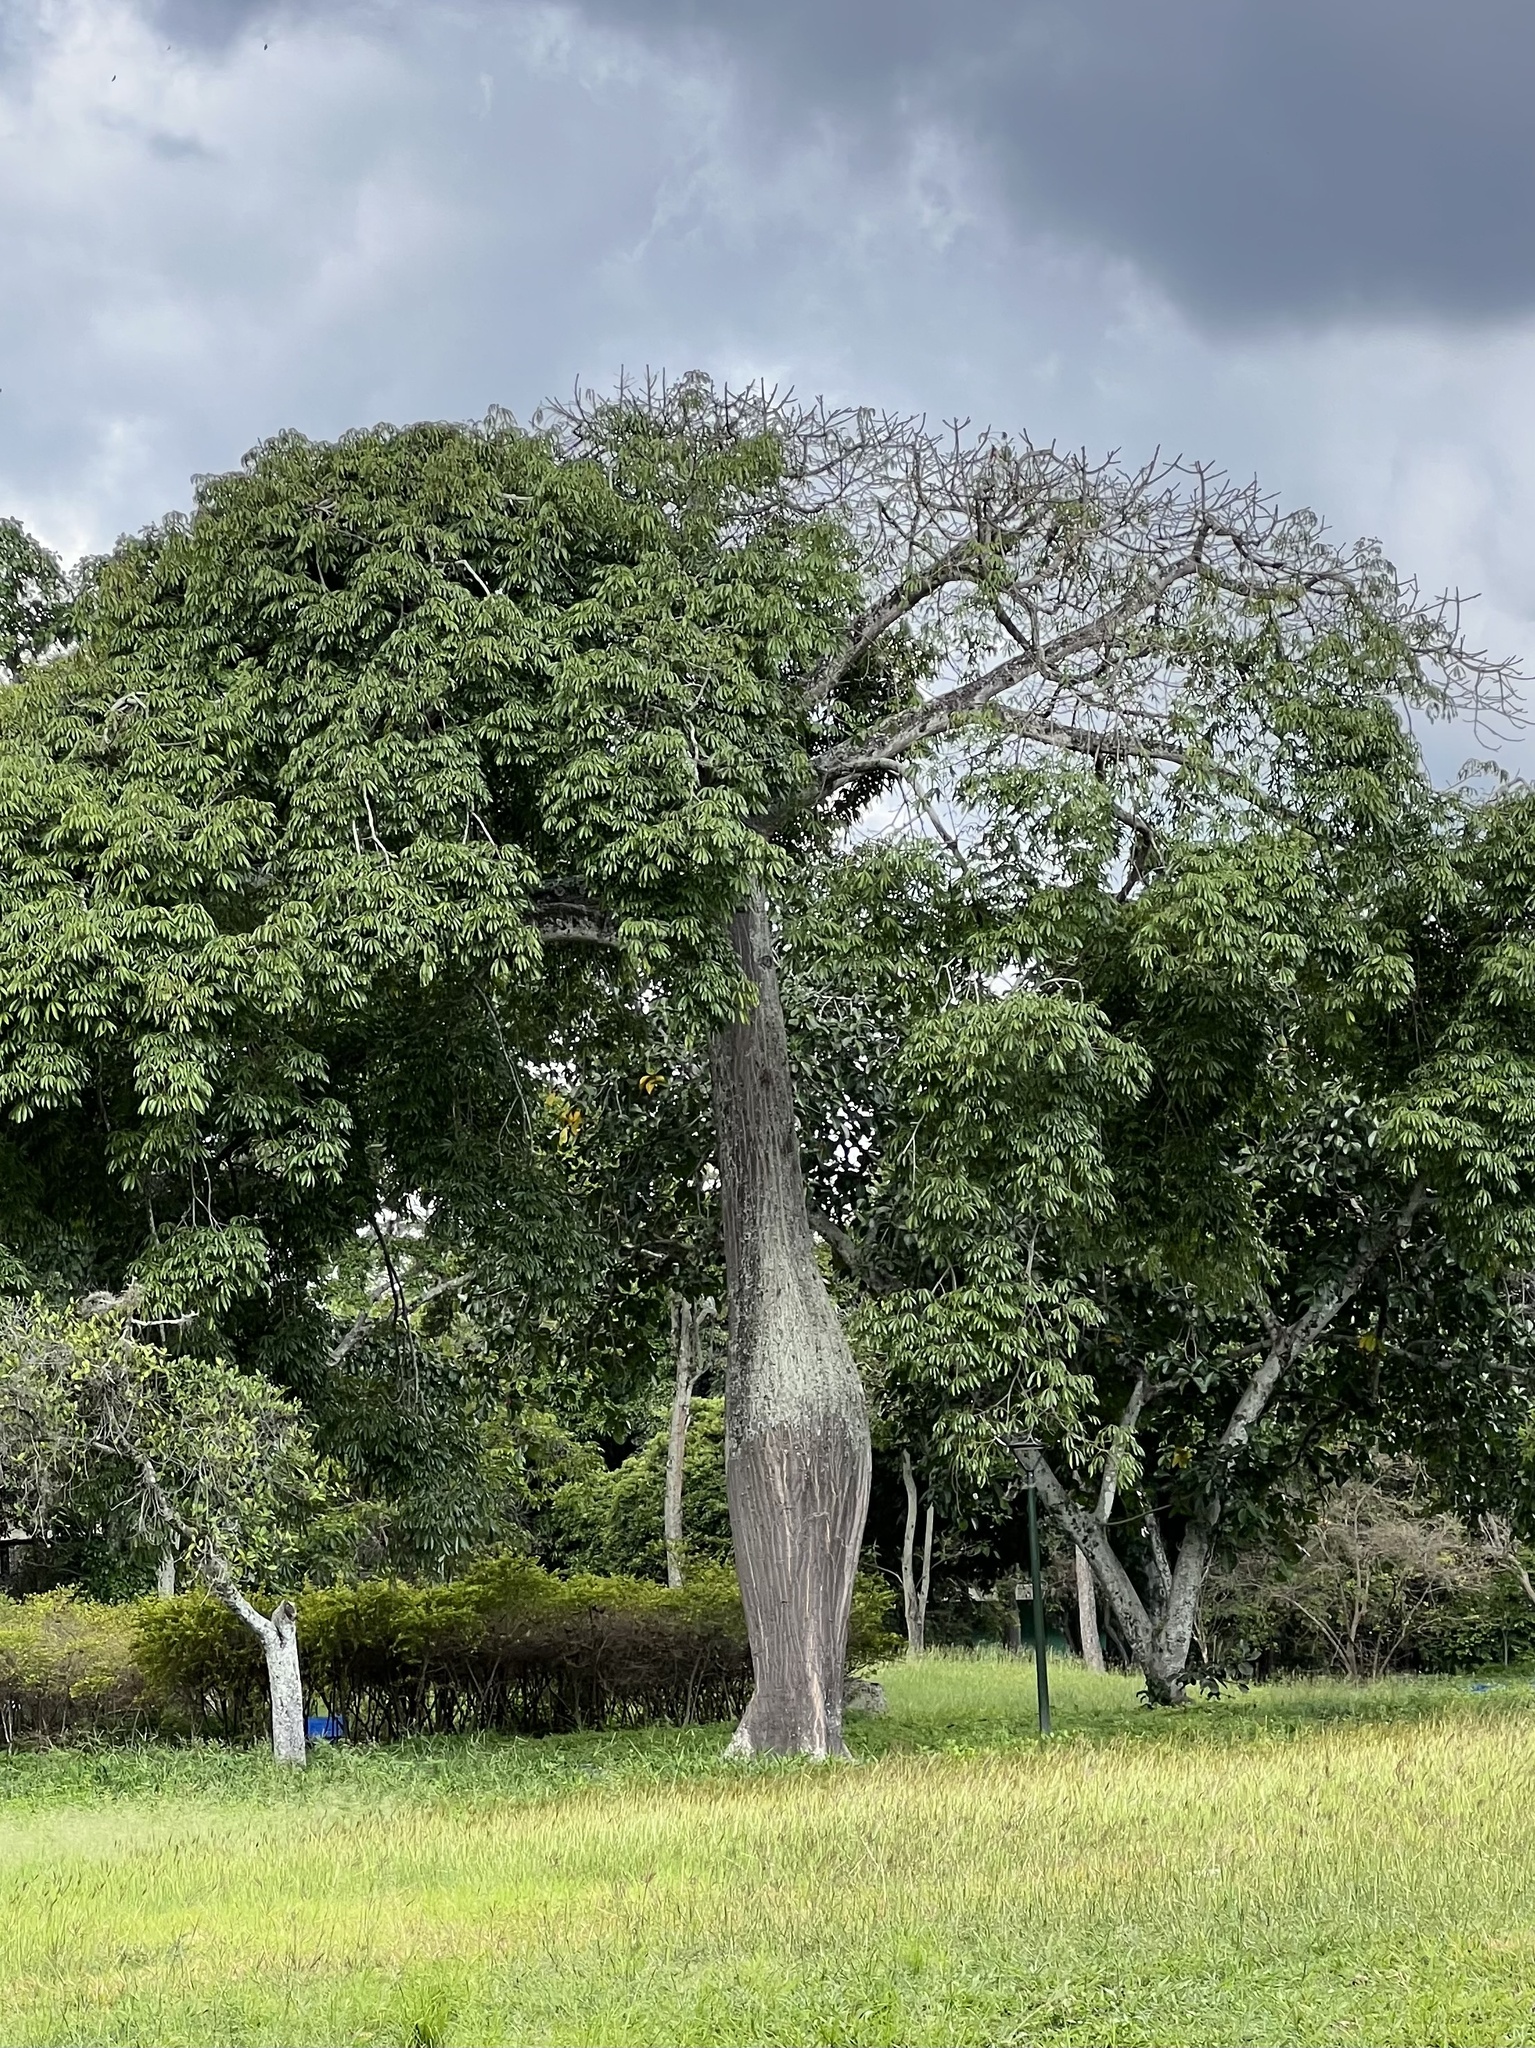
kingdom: Plantae
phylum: Tracheophyta
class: Magnoliopsida
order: Malvales
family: Malvaceae
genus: Ceiba
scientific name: Ceiba pentandra
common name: Kapok
